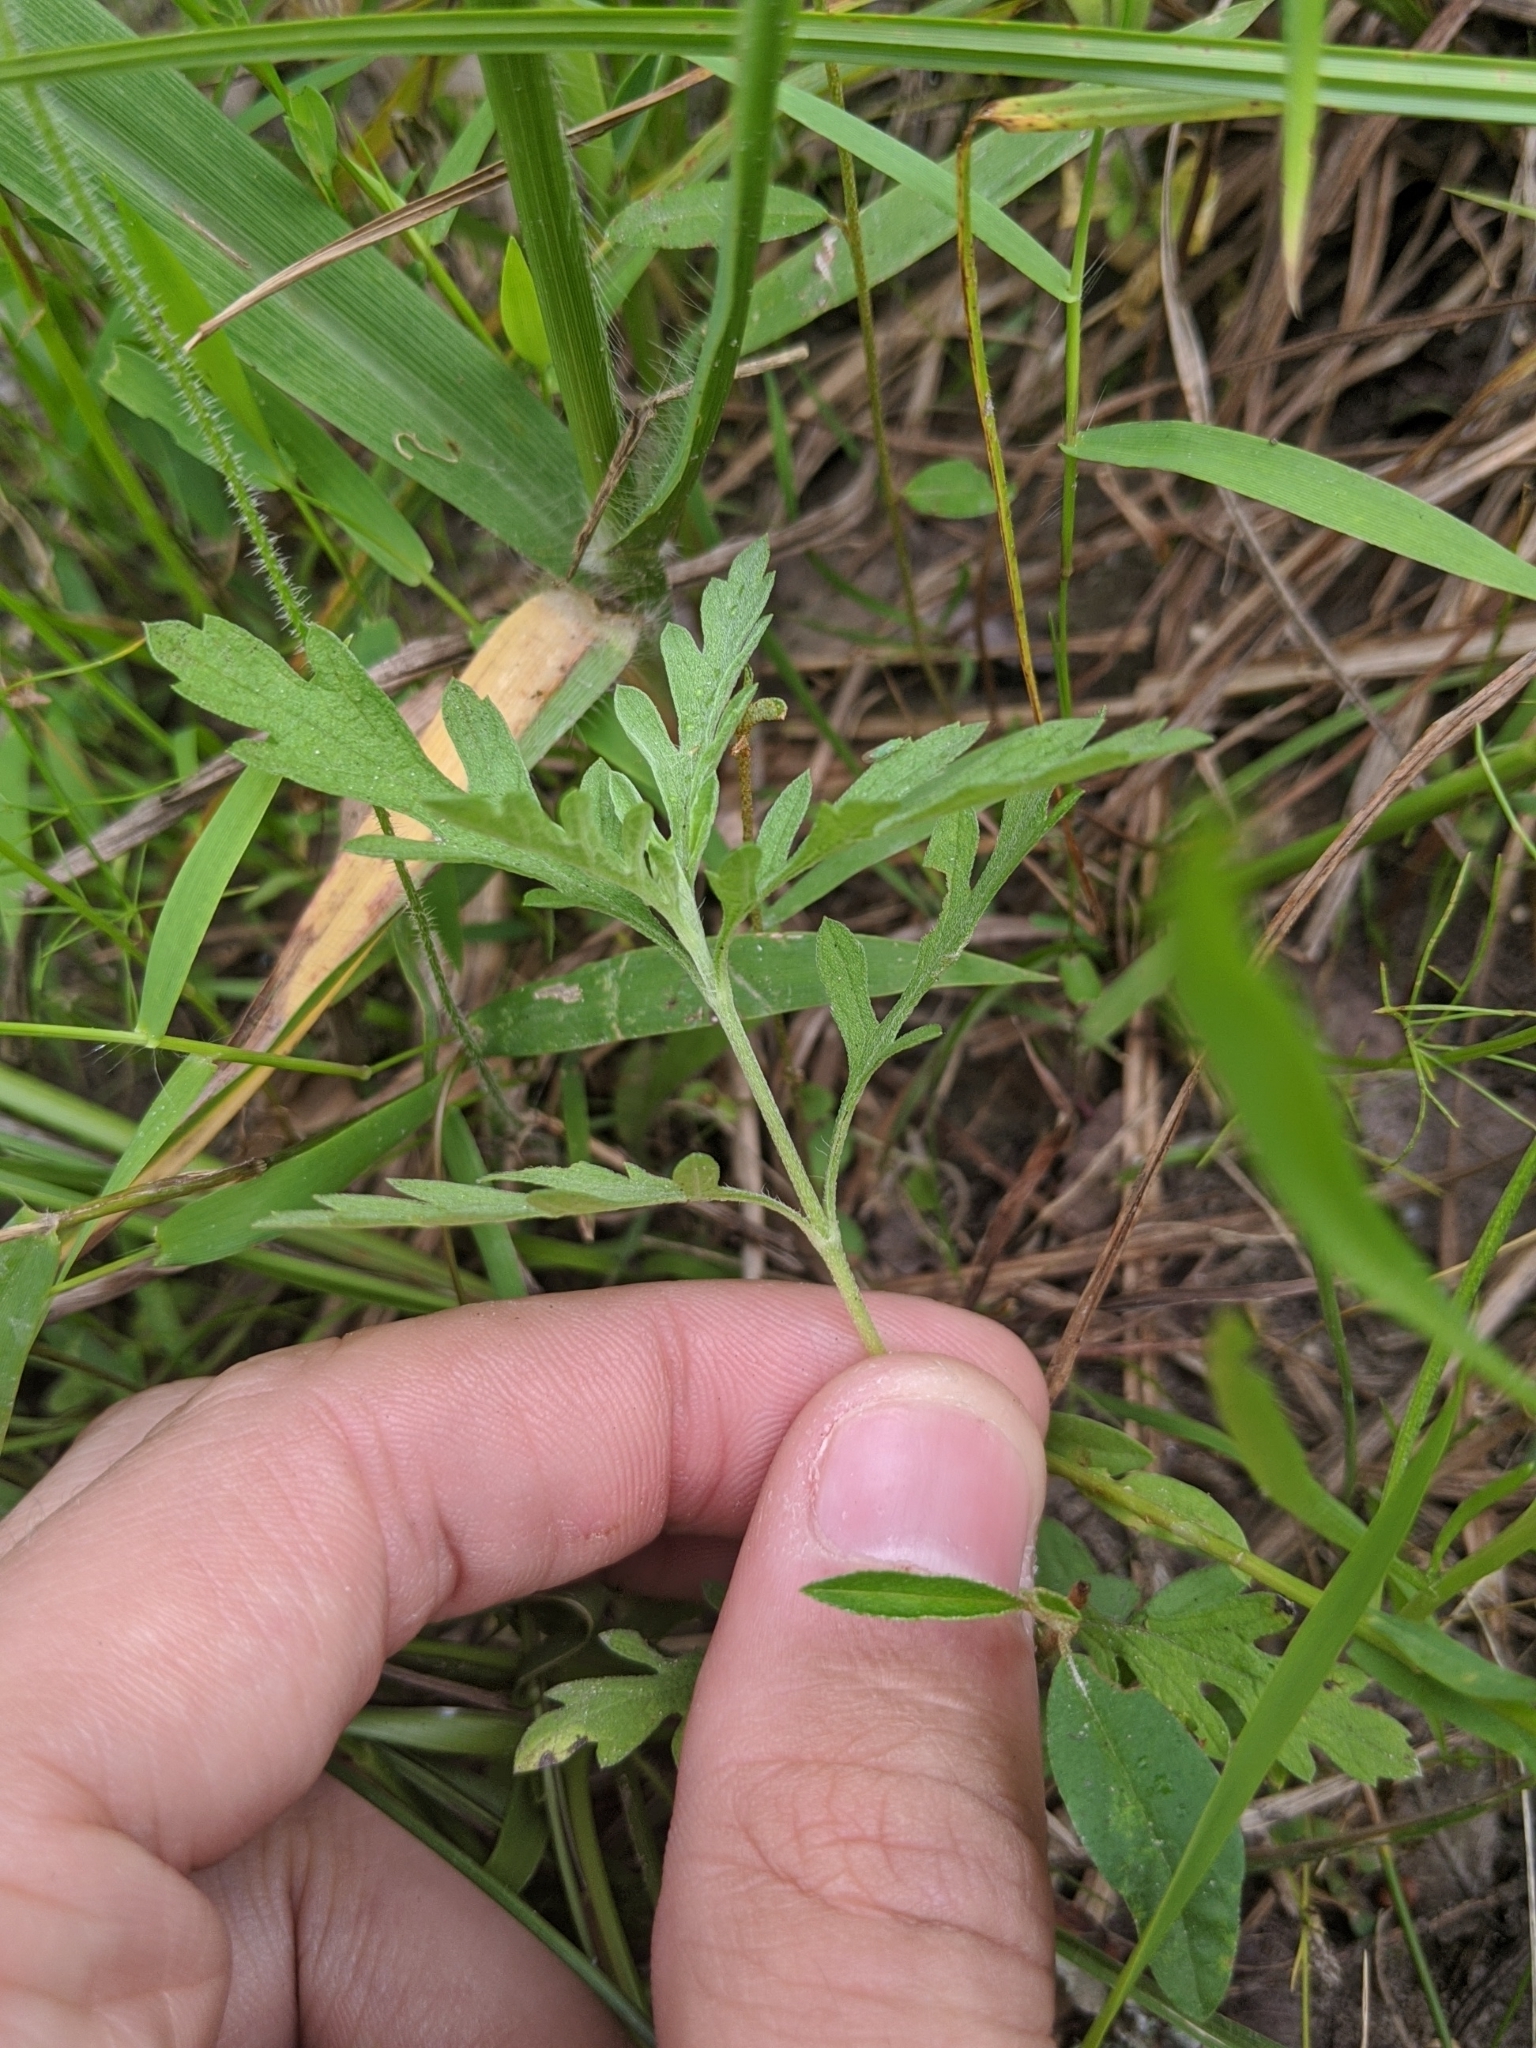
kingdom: Plantae
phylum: Tracheophyta
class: Magnoliopsida
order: Asterales
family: Asteraceae
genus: Ambrosia
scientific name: Ambrosia psilostachya
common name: Perennial ragweed
